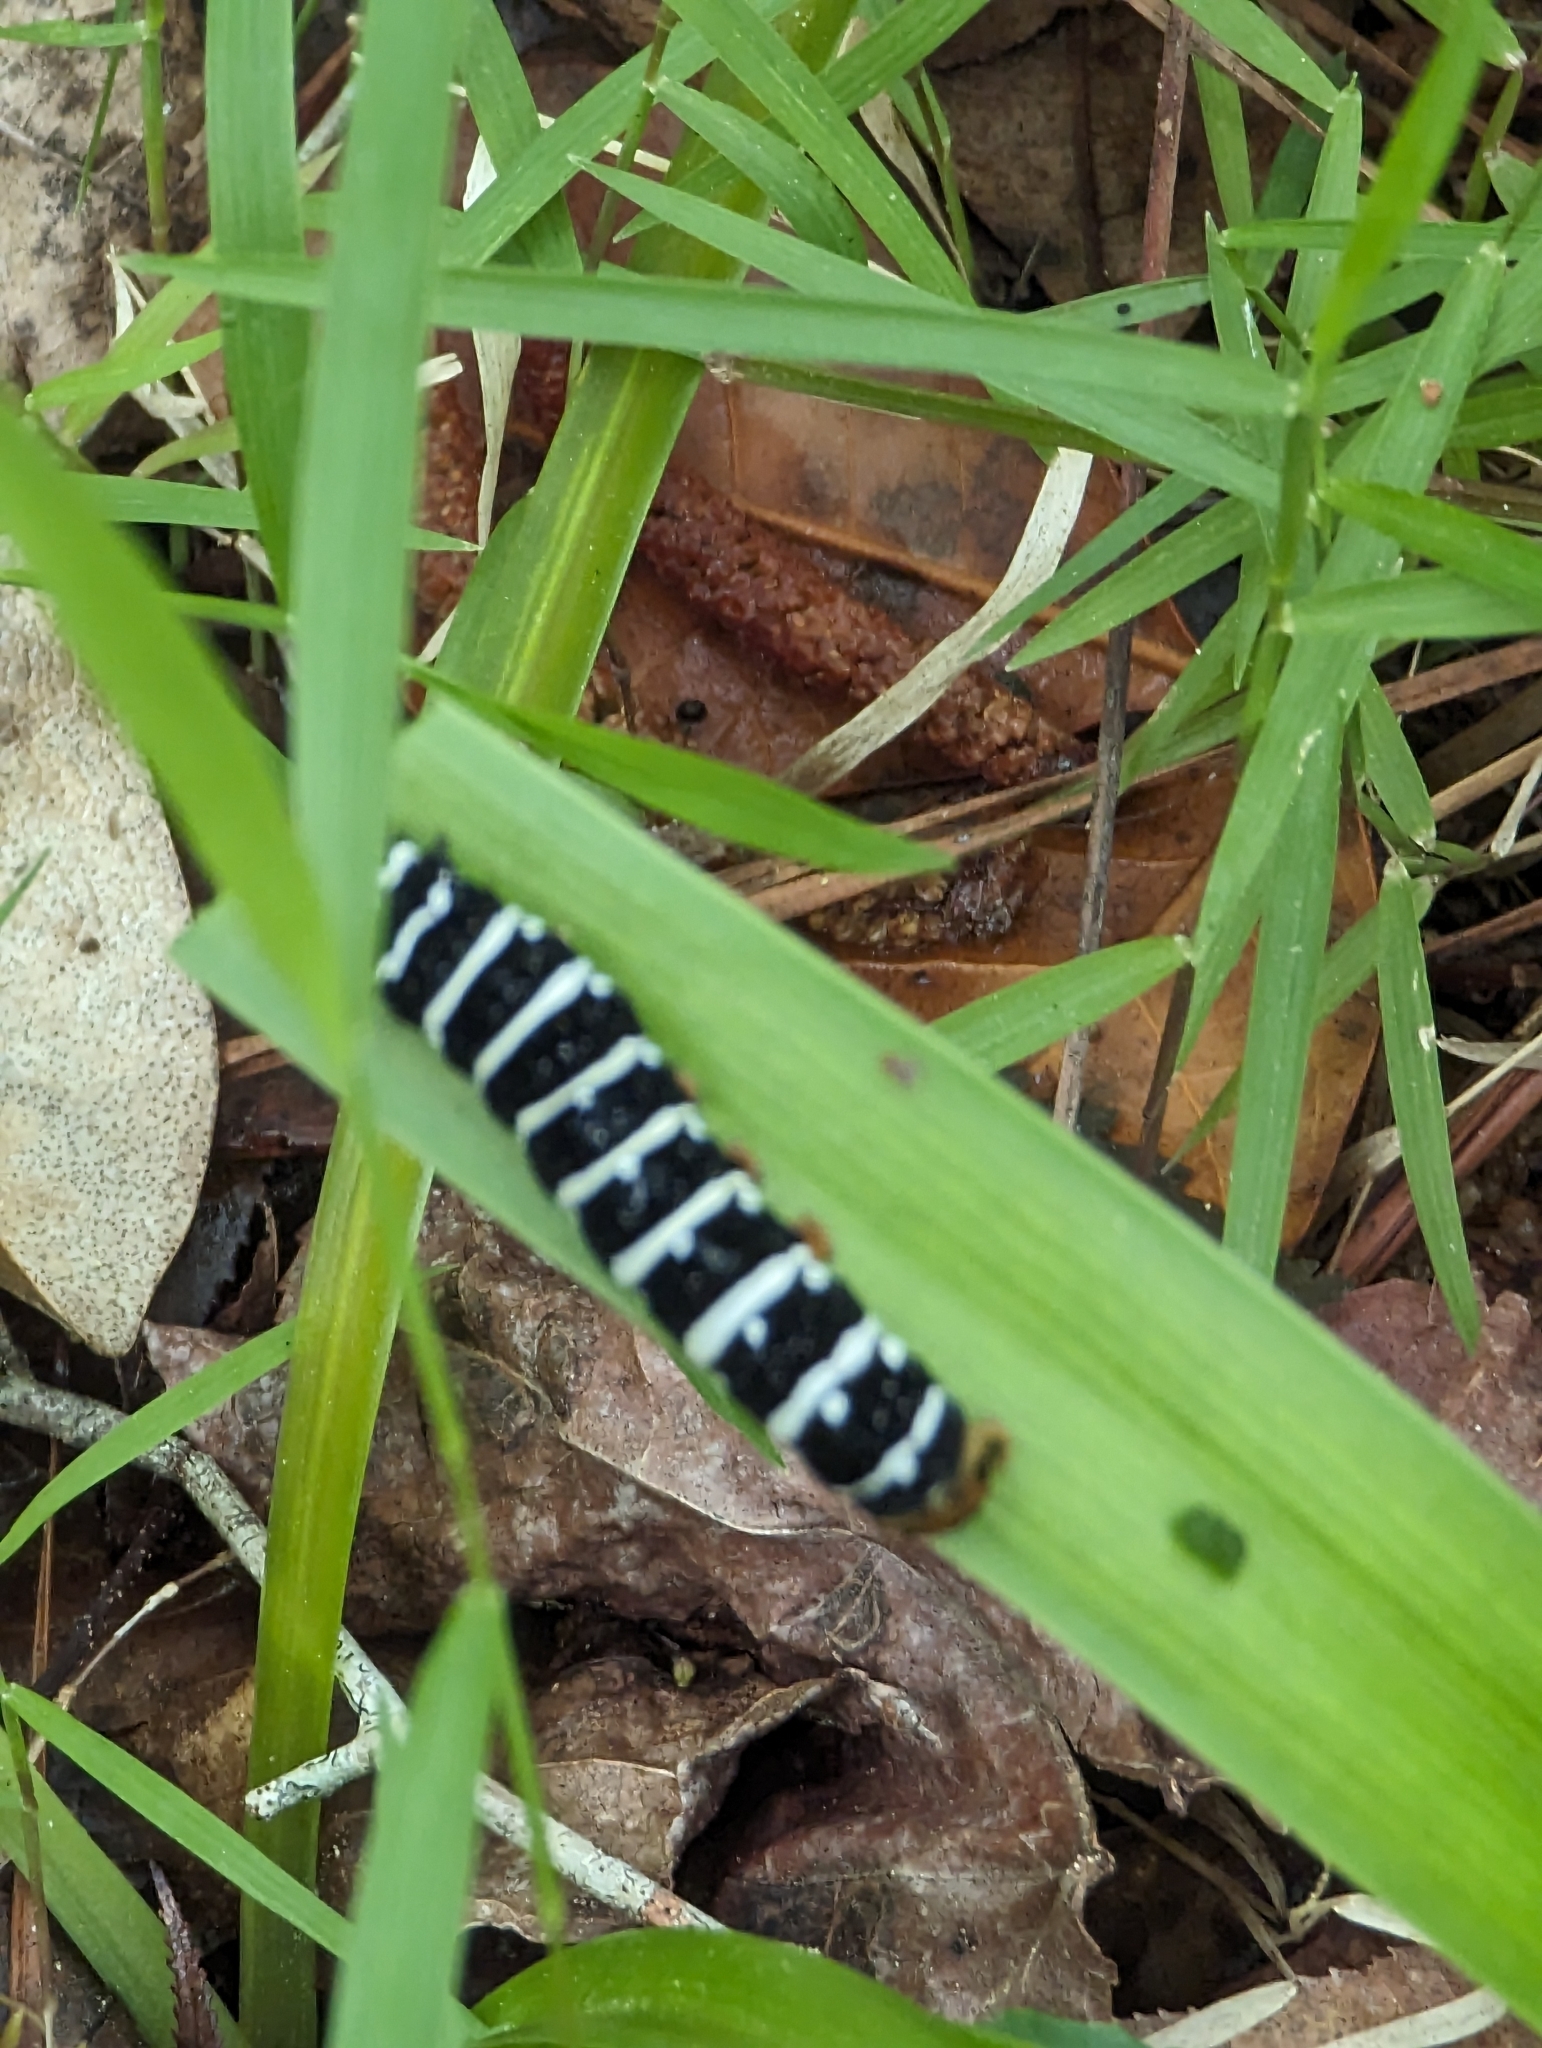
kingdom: Animalia
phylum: Arthropoda
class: Insecta
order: Lepidoptera
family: Noctuidae
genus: Xanthopastis
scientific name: Xanthopastis regnatrix
